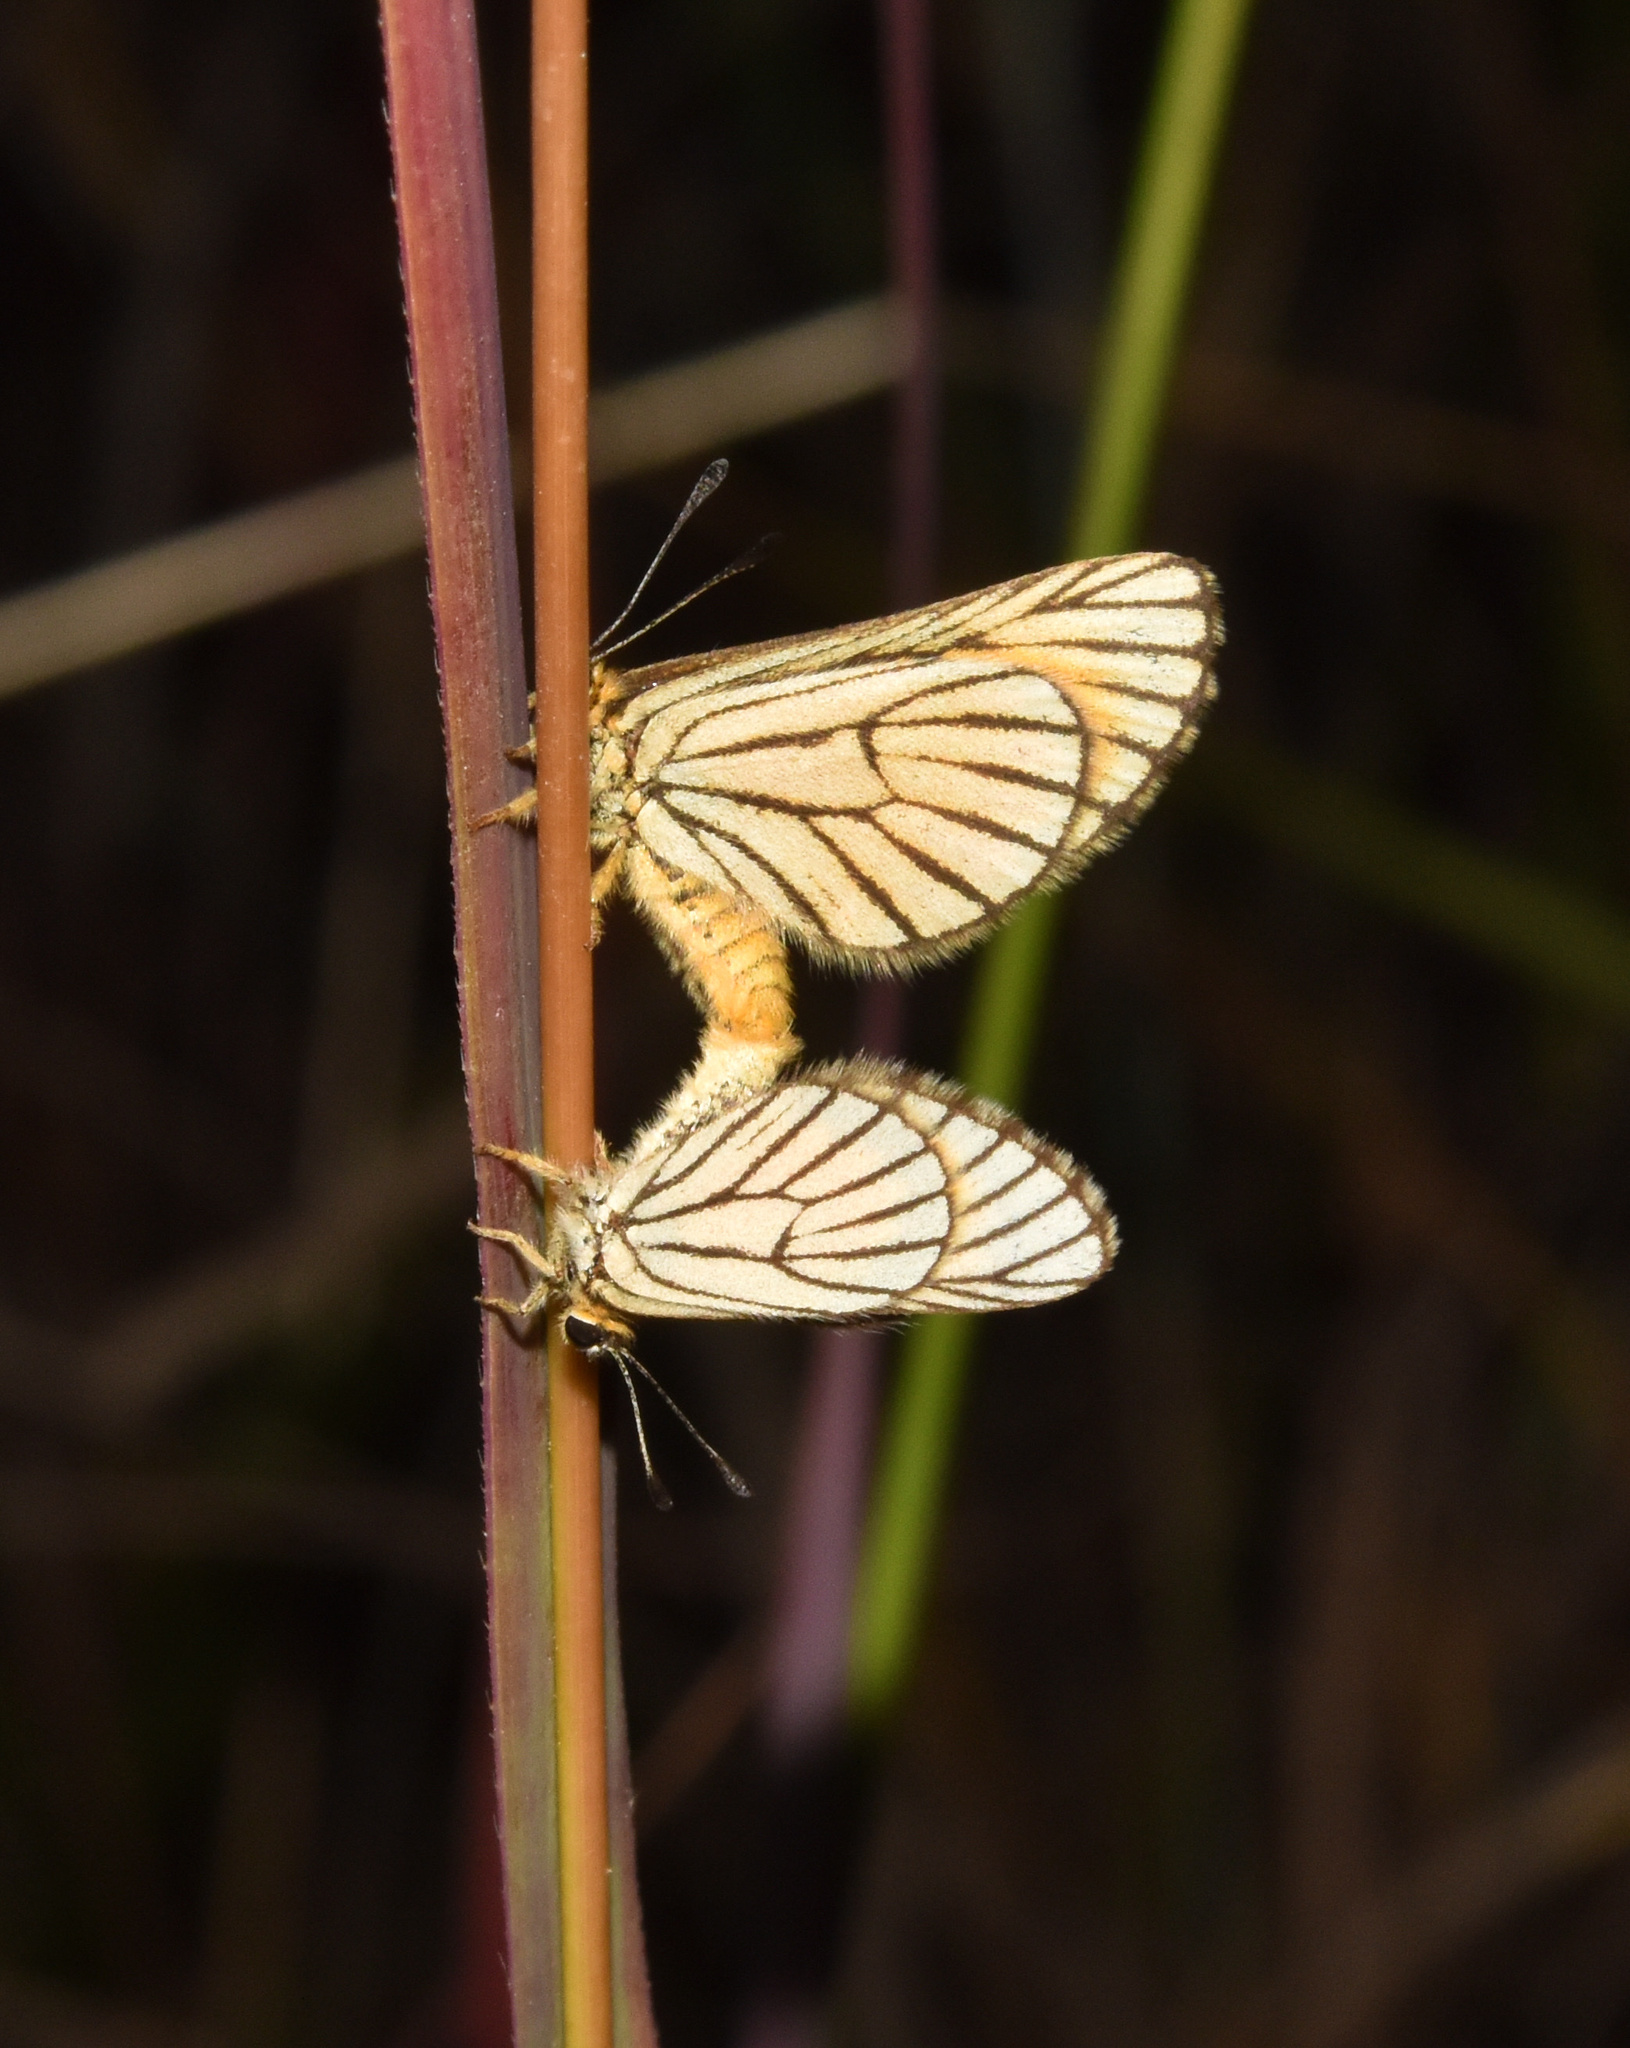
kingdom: Animalia
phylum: Arthropoda
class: Insecta
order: Lepidoptera
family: Lycaenidae
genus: Alaena
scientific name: Alaena amazoula
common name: Yellow zulu
